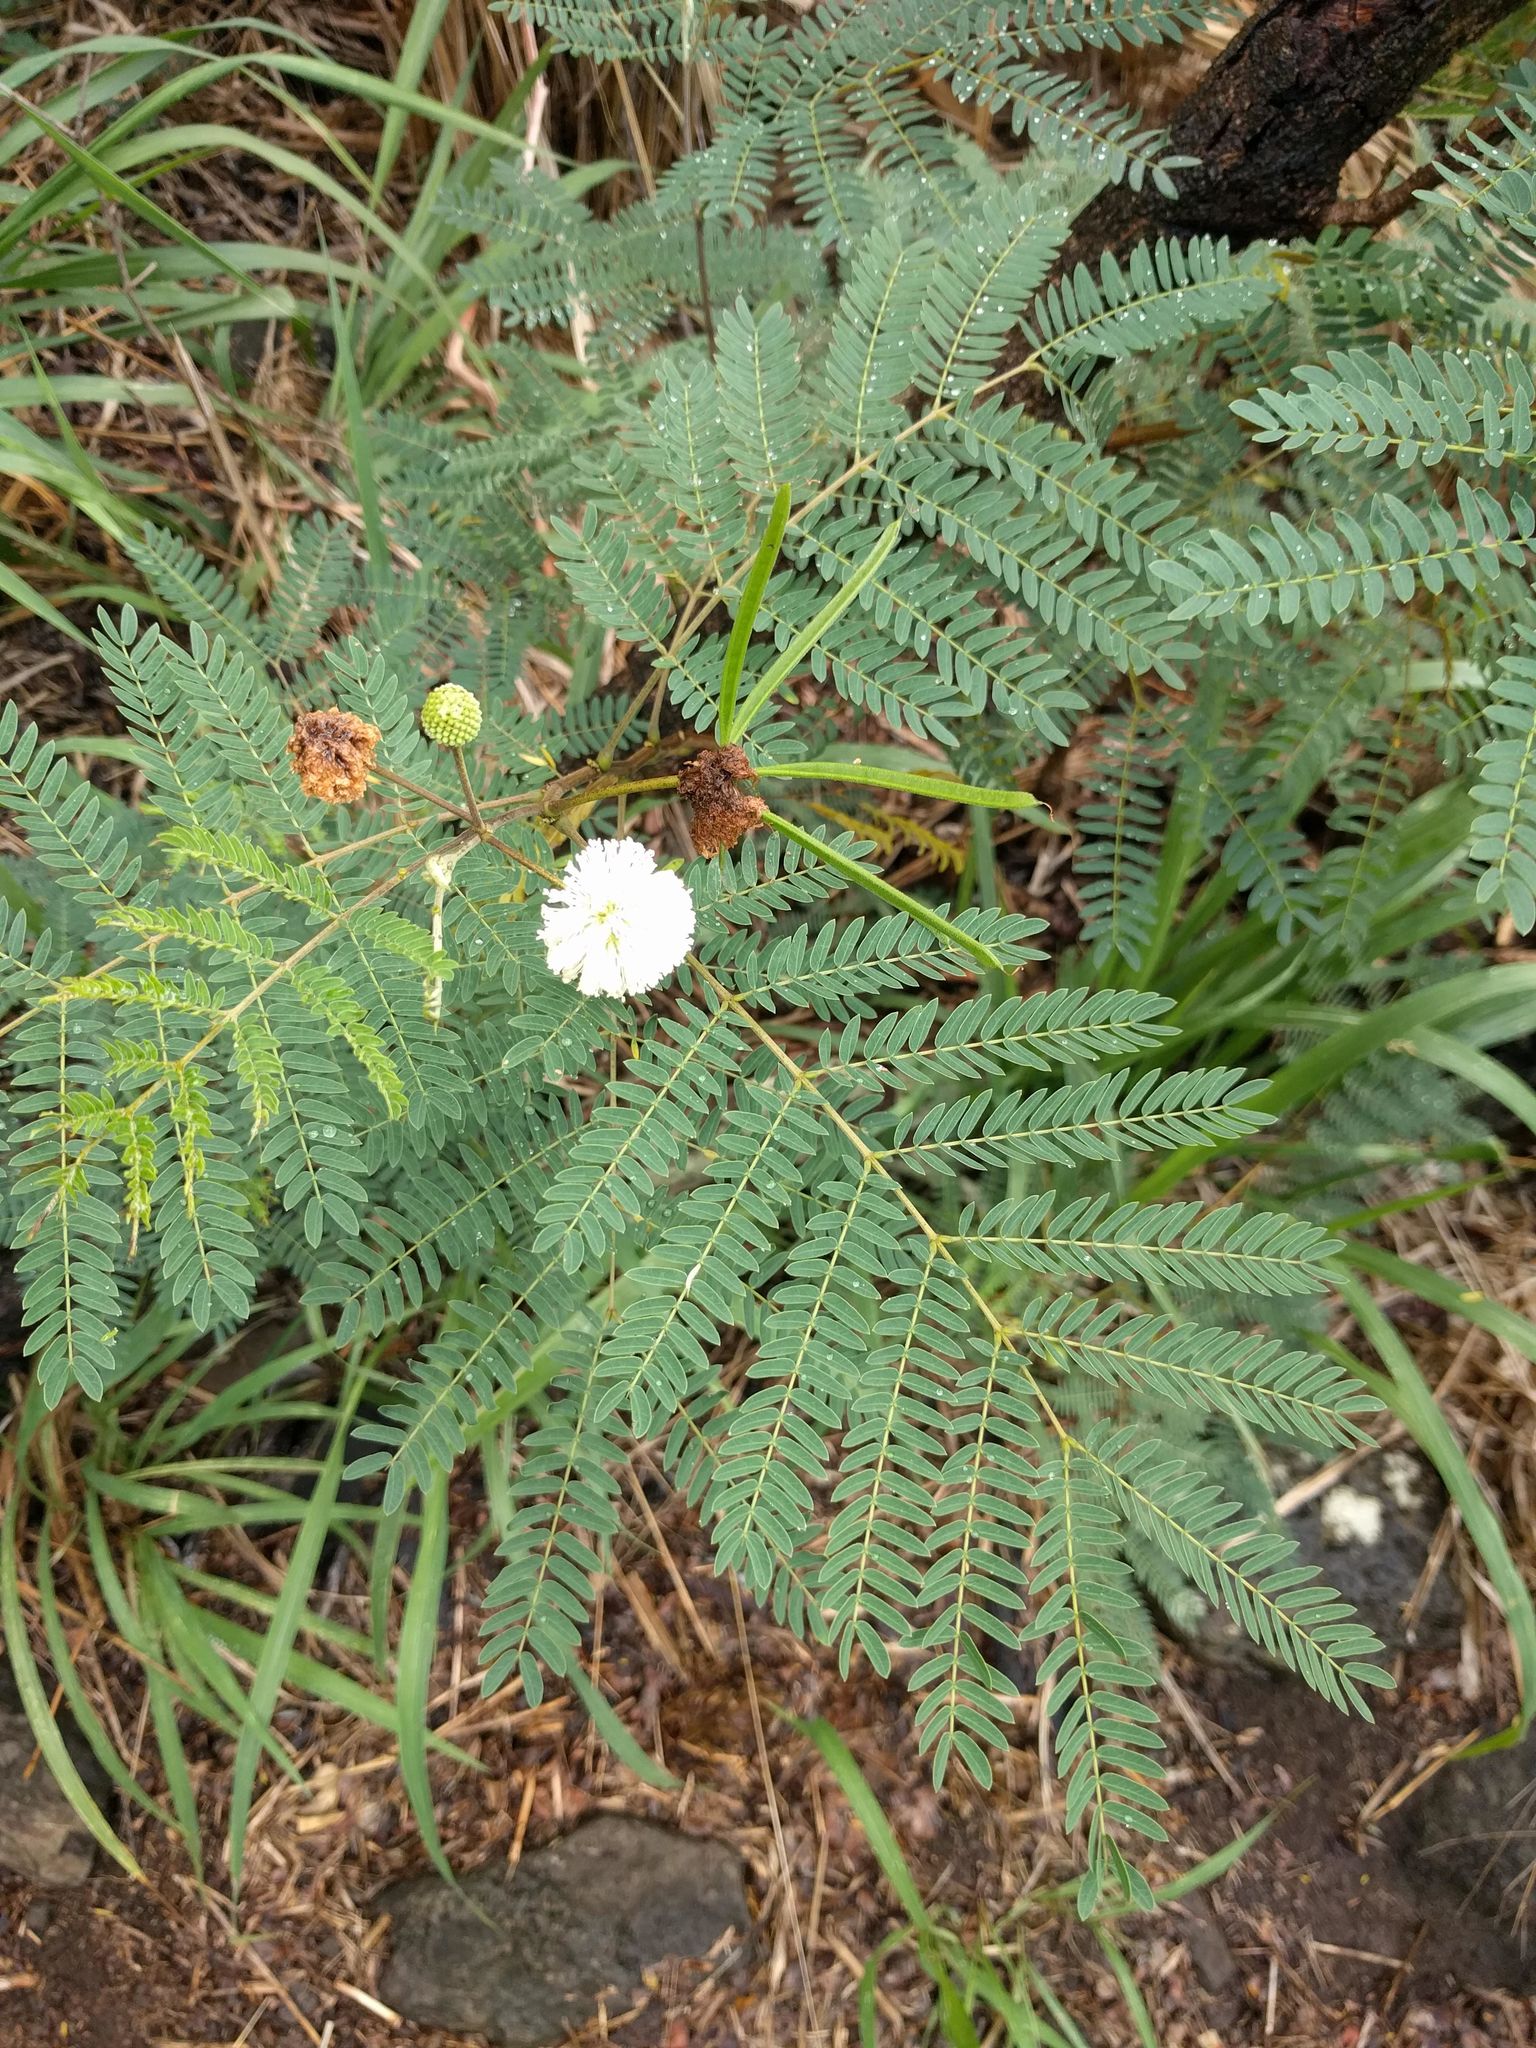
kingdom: Plantae
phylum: Tracheophyta
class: Magnoliopsida
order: Fabales
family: Fabaceae
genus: Leucaena
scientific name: Leucaena leucocephala
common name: White leadtree
